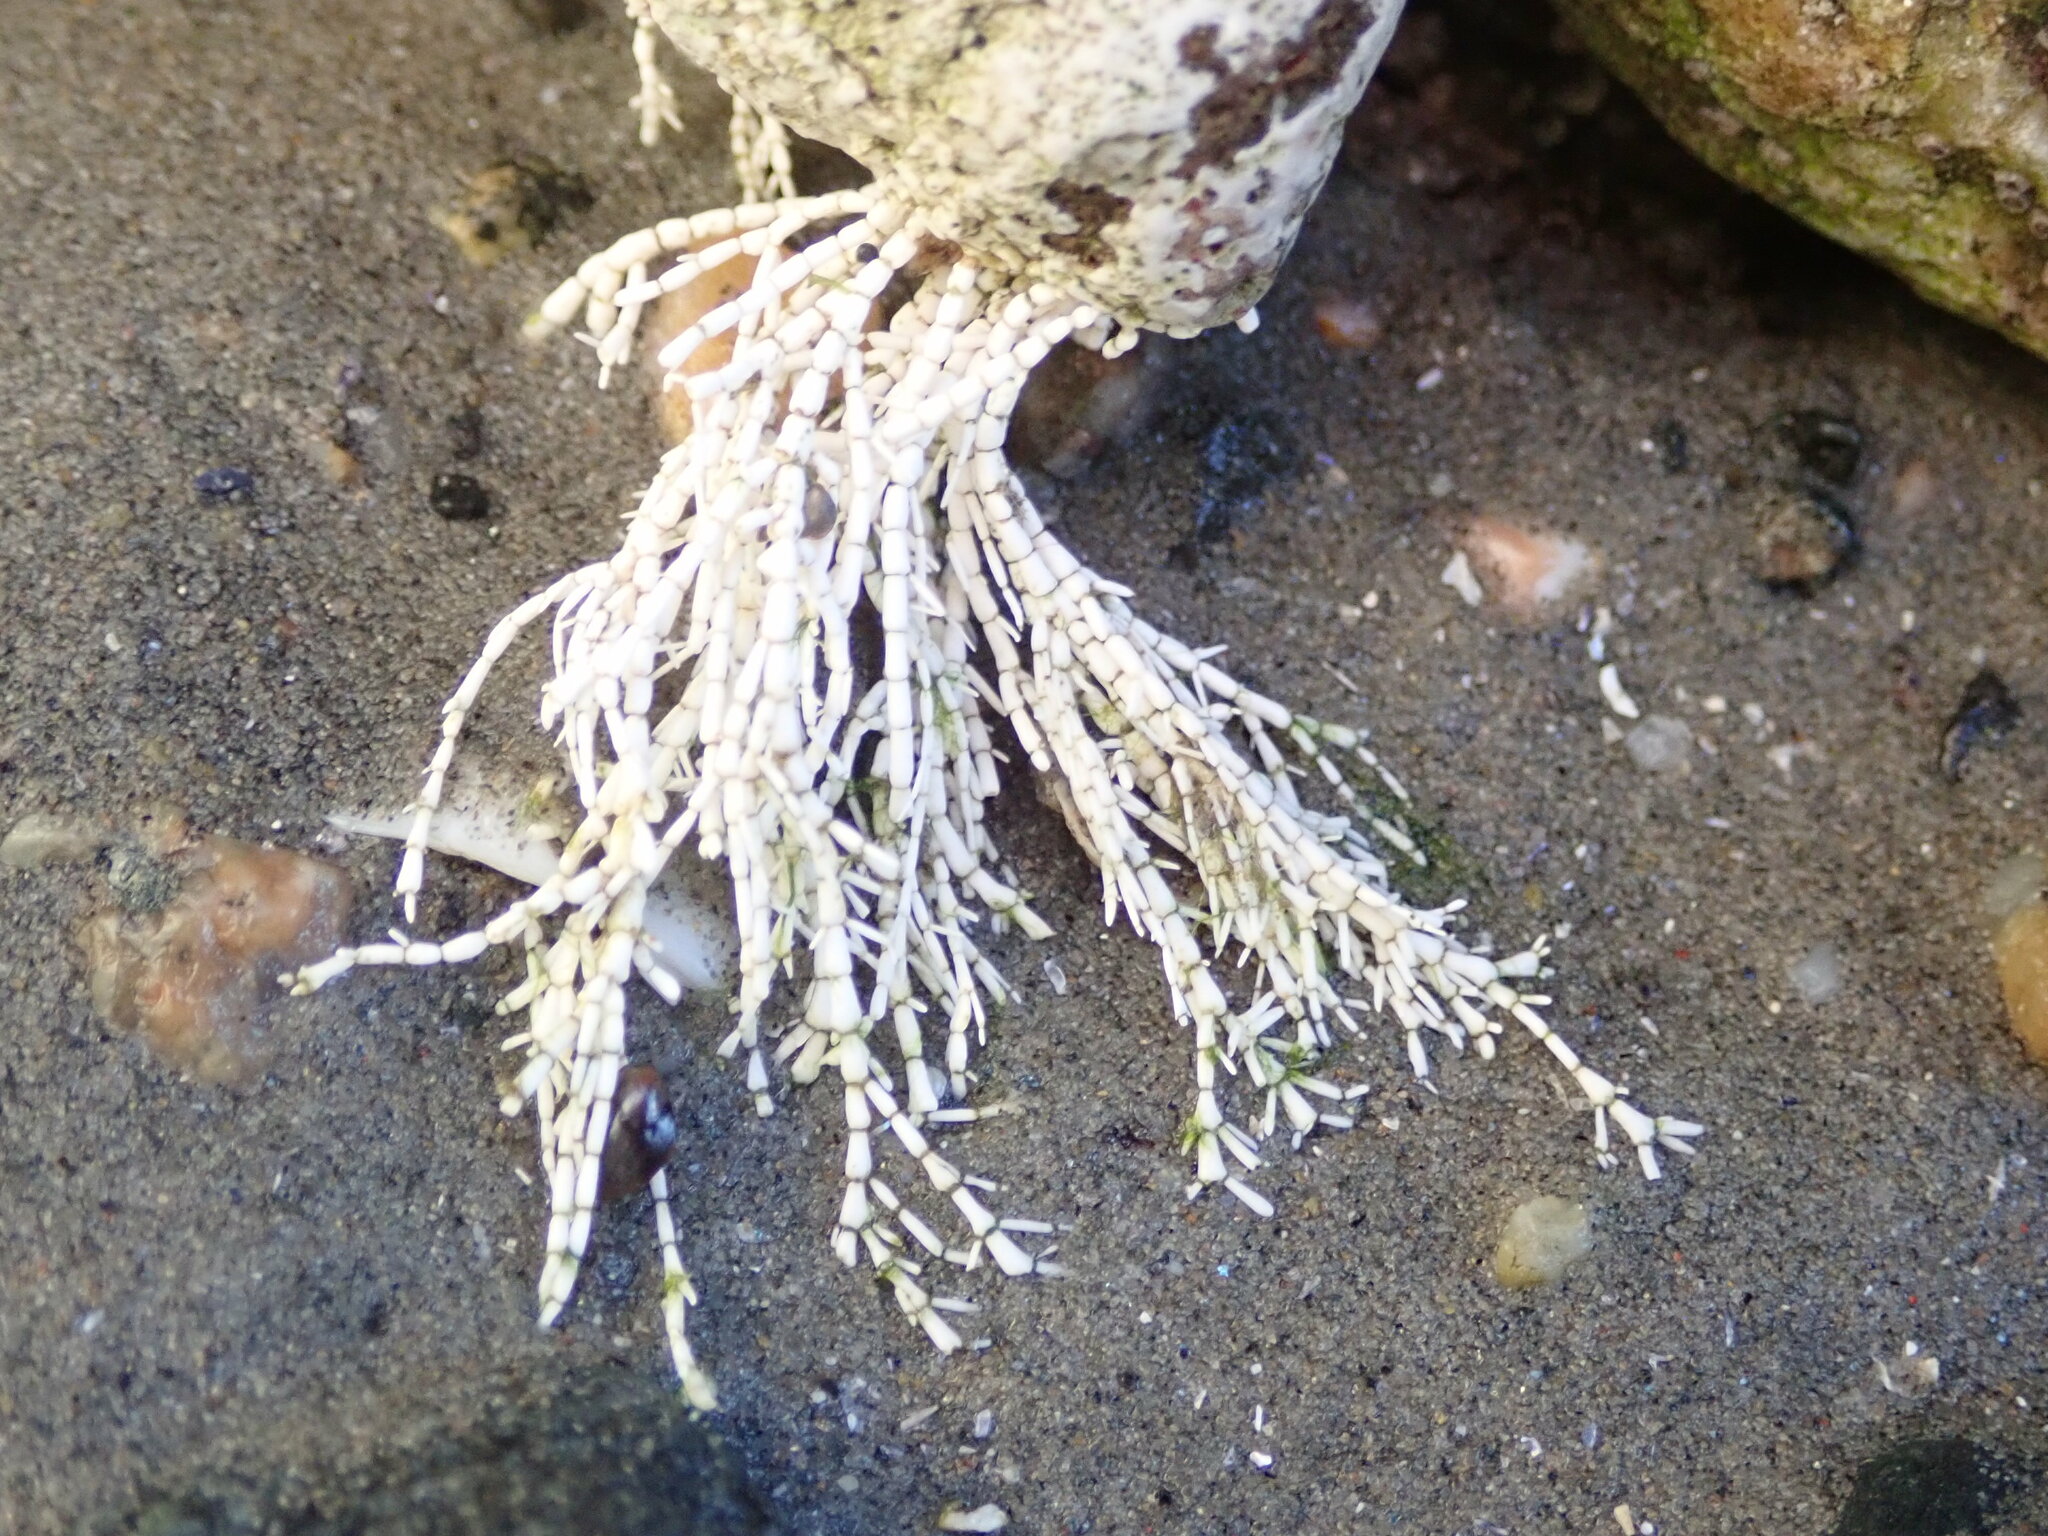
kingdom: Plantae
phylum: Rhodophyta
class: Florideophyceae
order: Corallinales
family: Corallinaceae
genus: Corallina
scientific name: Corallina officinalis
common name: Coral weed
